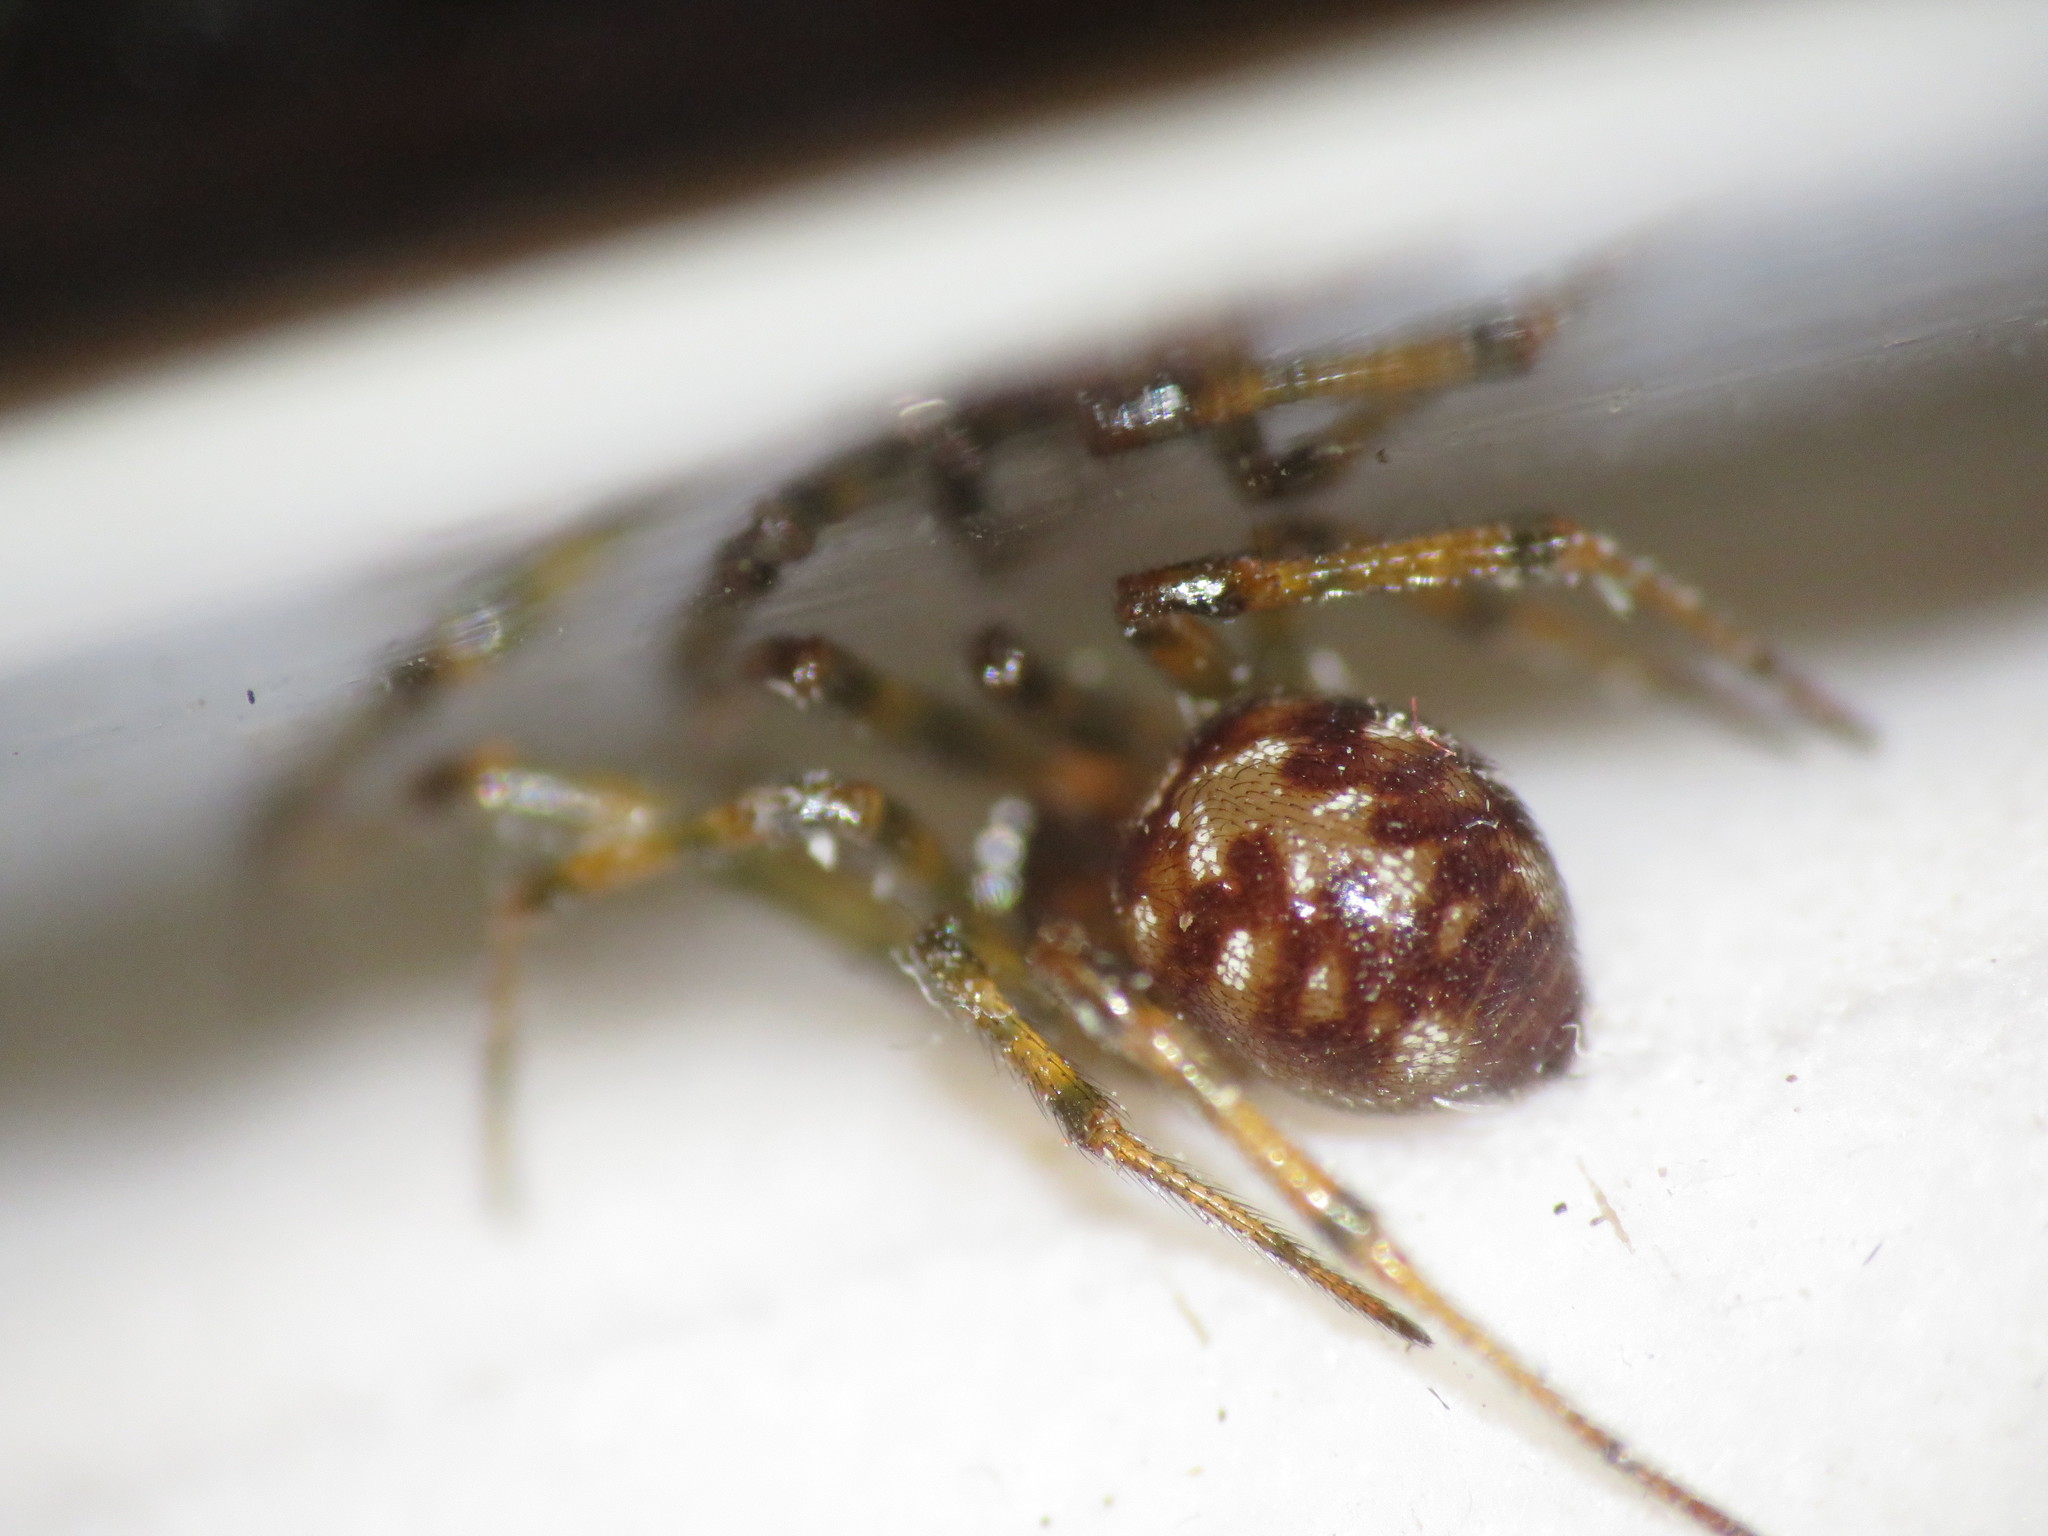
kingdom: Animalia
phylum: Arthropoda
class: Arachnida
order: Araneae
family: Theridiidae
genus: Steatoda
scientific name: Steatoda triangulosa
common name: Triangulate bud spider
